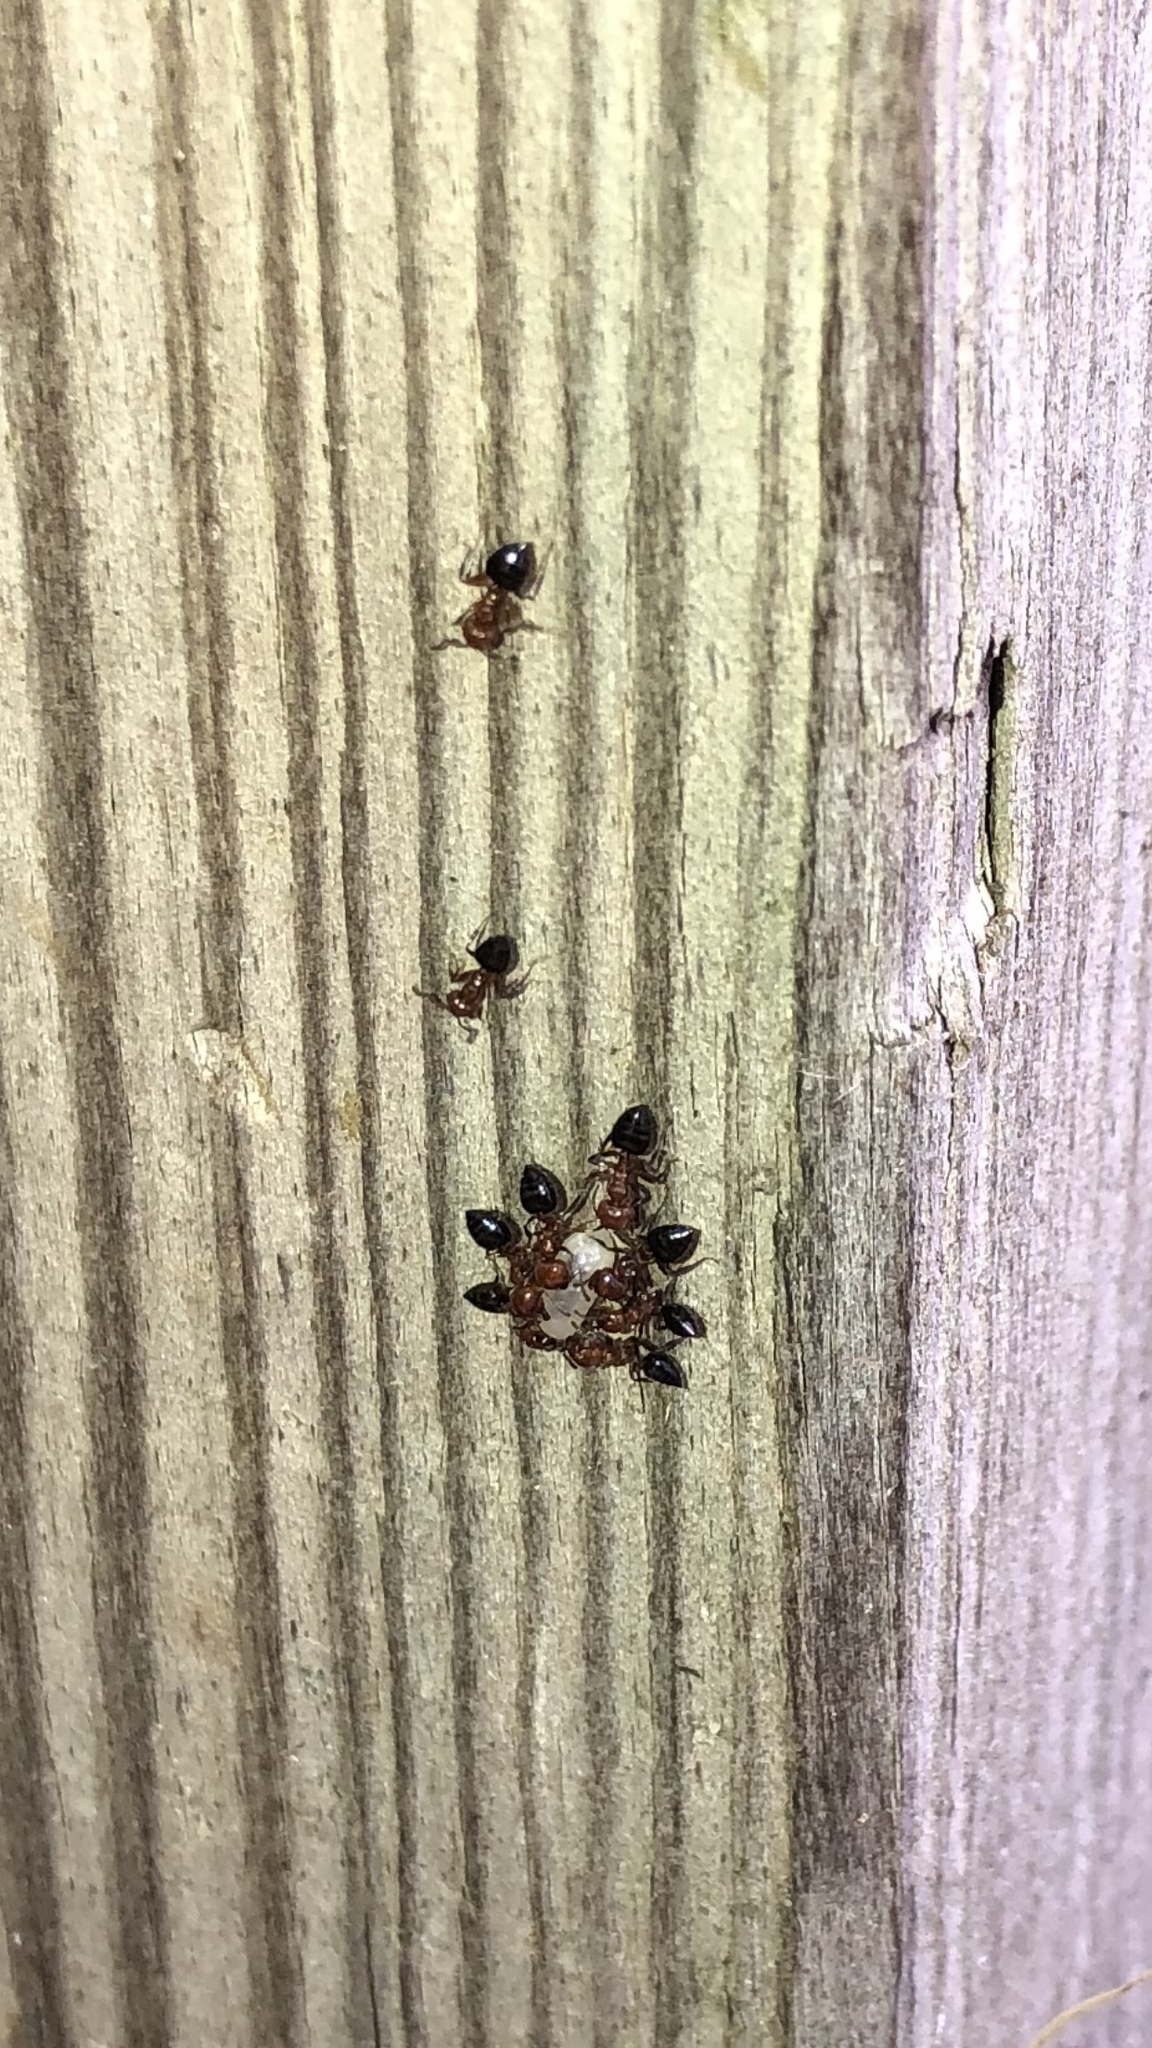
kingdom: Animalia
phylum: Arthropoda
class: Insecta
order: Hymenoptera
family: Formicidae
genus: Crematogaster
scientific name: Crematogaster laeviuscula
